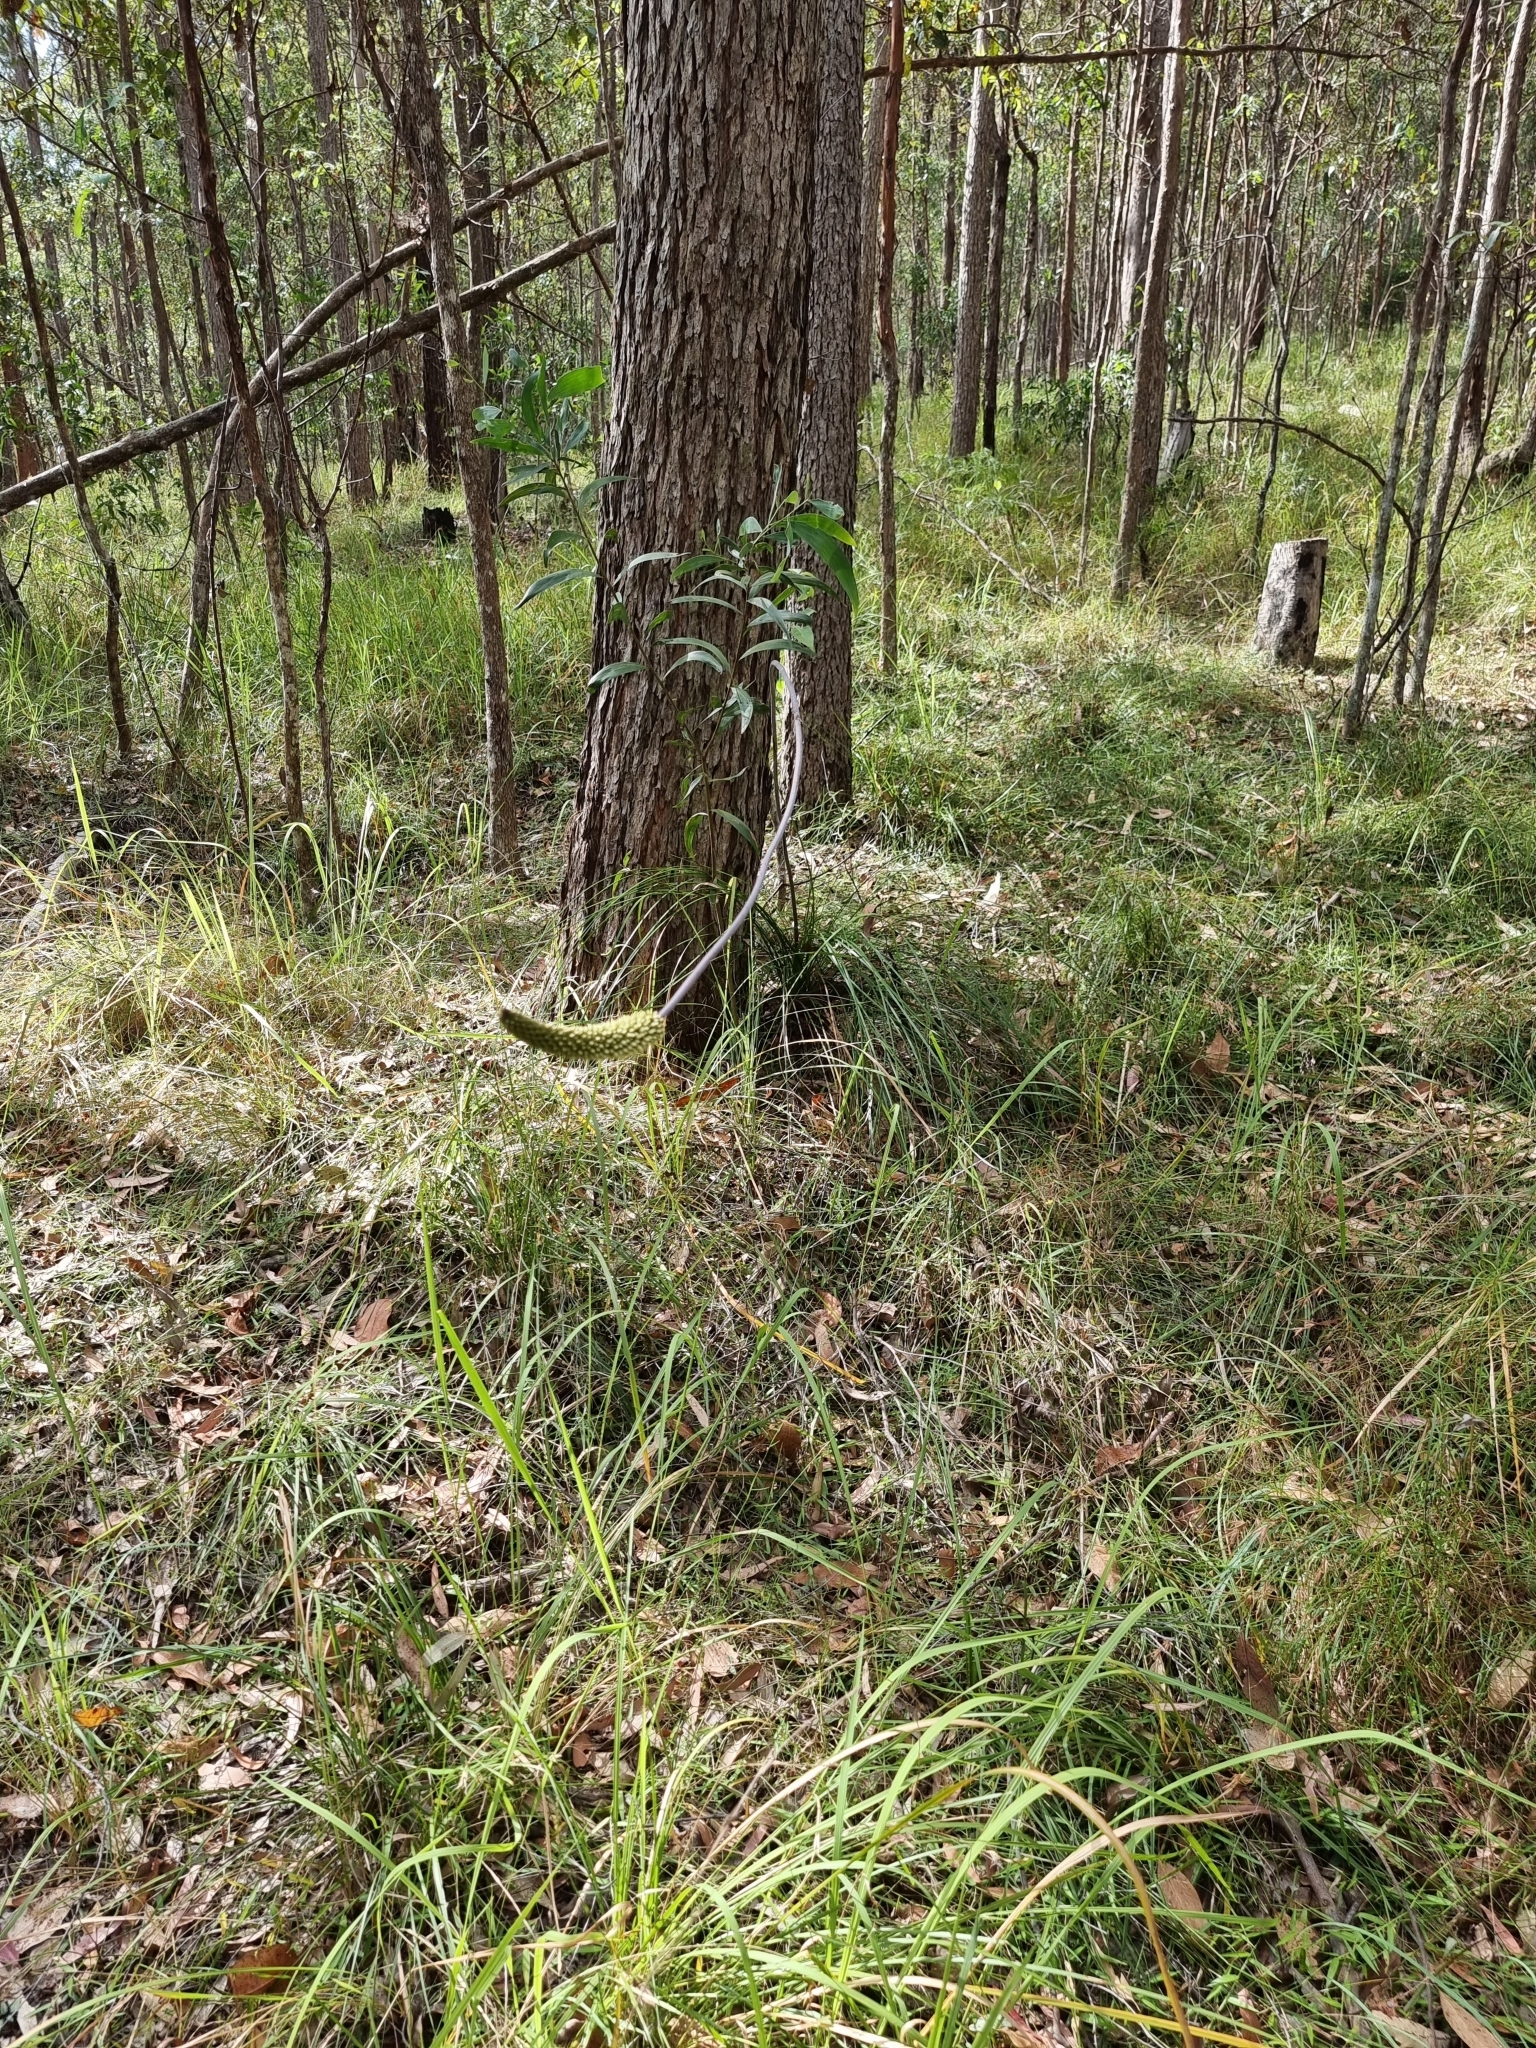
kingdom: Plantae
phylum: Tracheophyta
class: Liliopsida
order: Asparagales
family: Asphodelaceae
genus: Xanthorrhoea
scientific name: Xanthorrhoea macronema
